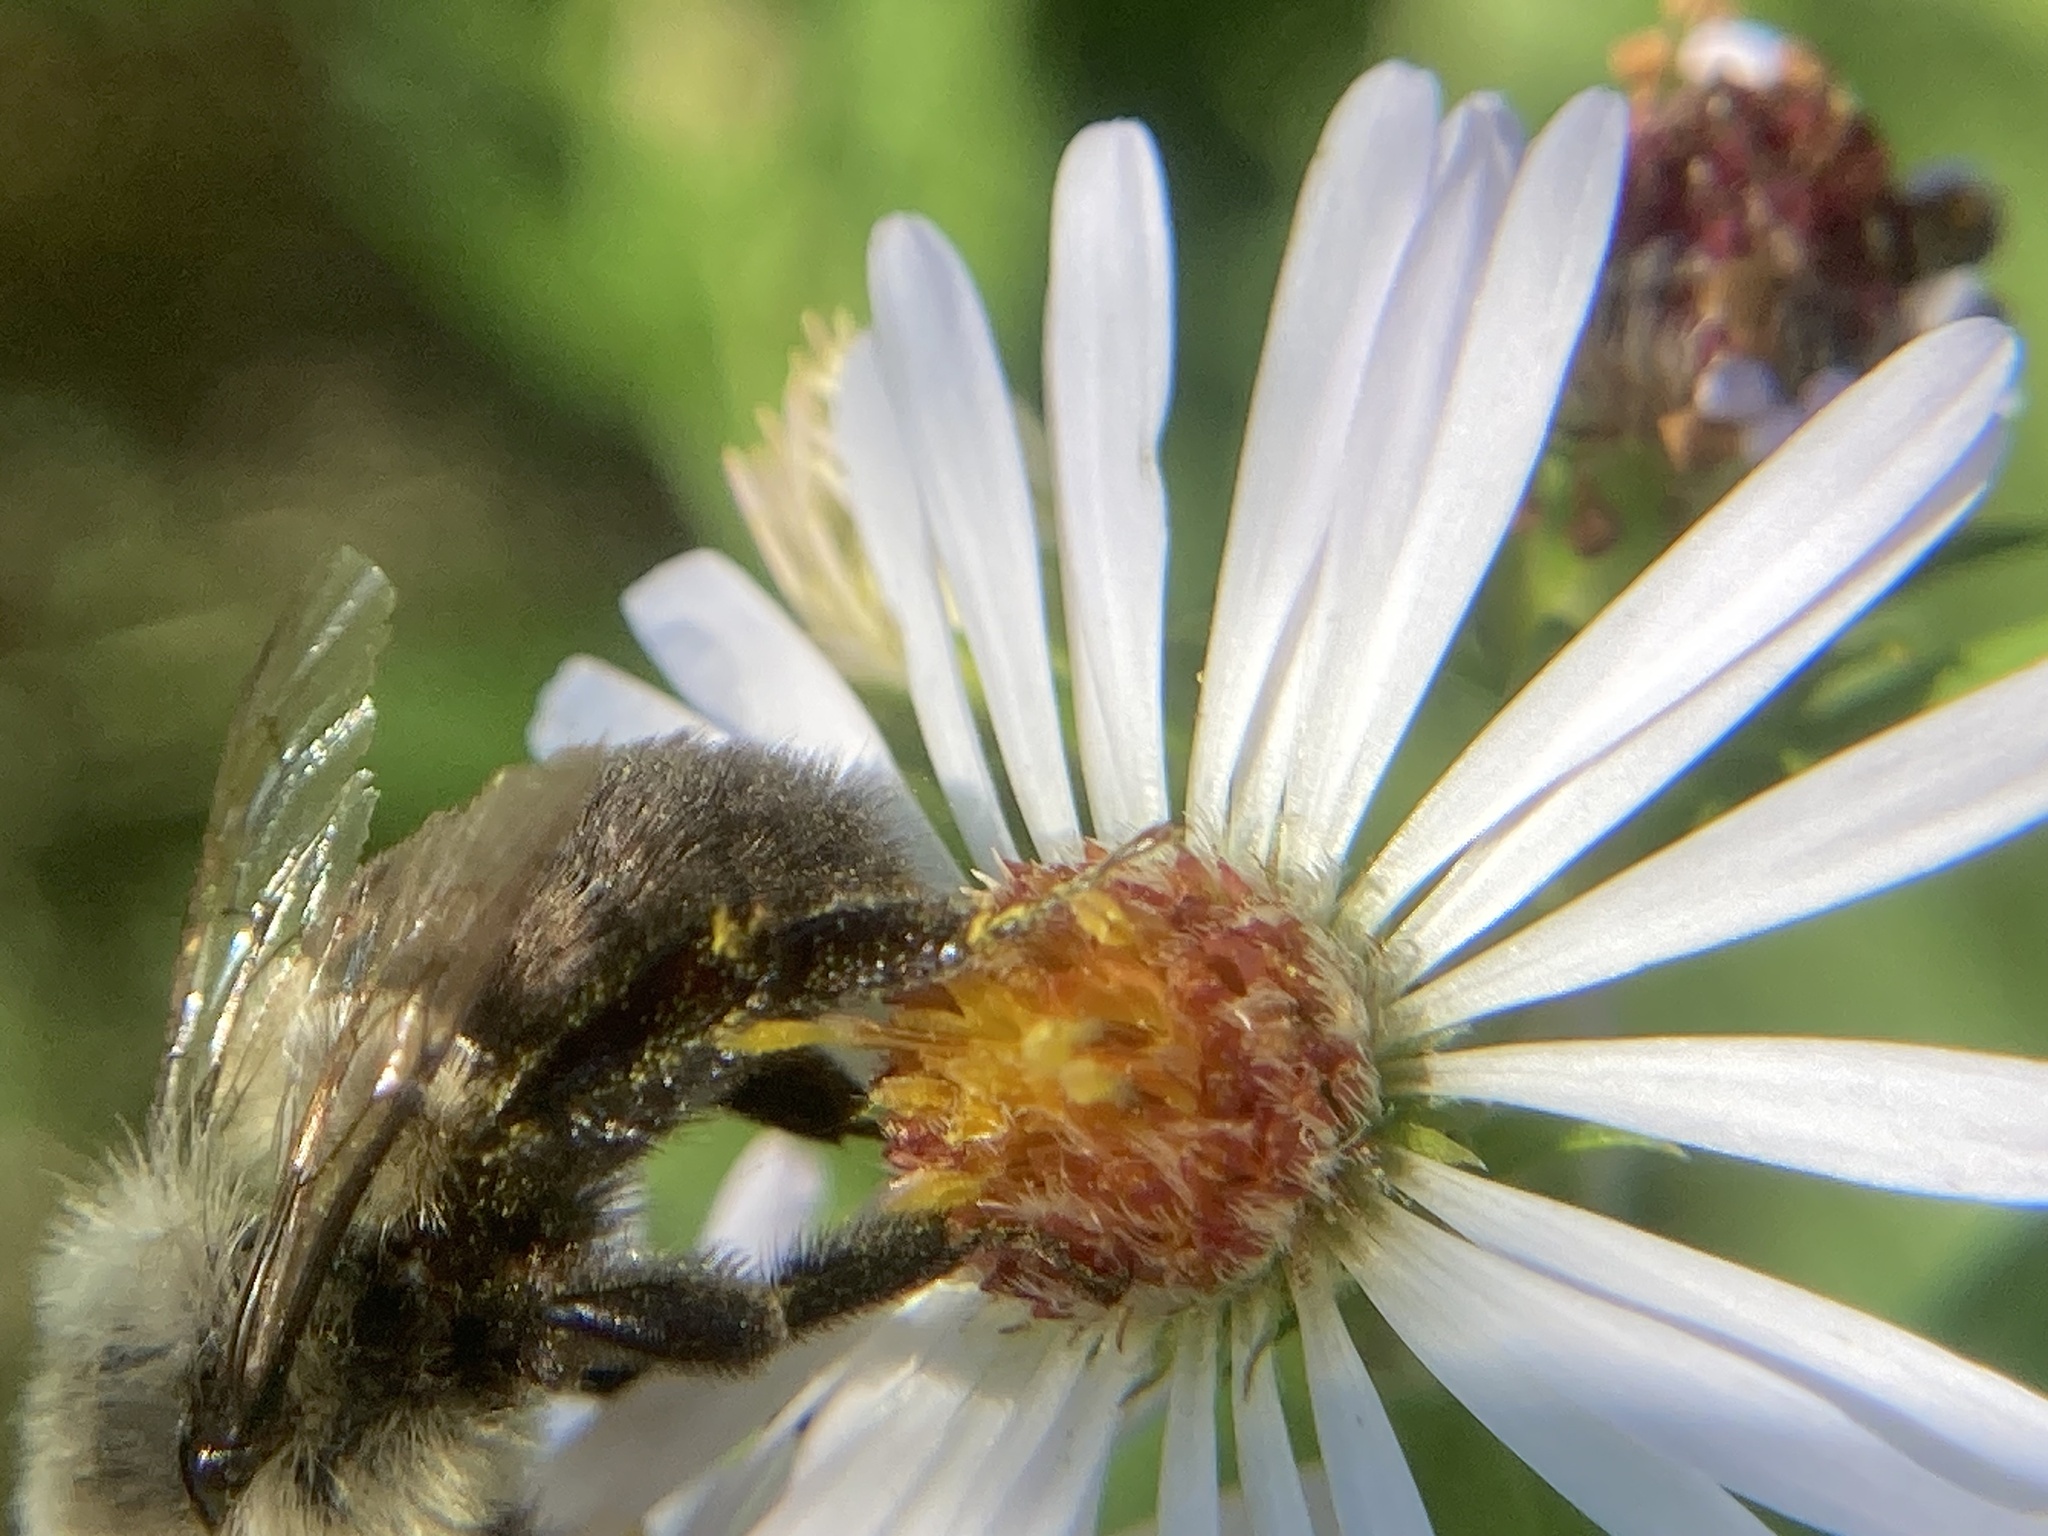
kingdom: Animalia
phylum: Arthropoda
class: Insecta
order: Hymenoptera
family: Apidae
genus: Bombus
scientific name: Bombus impatiens
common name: Common eastern bumble bee
